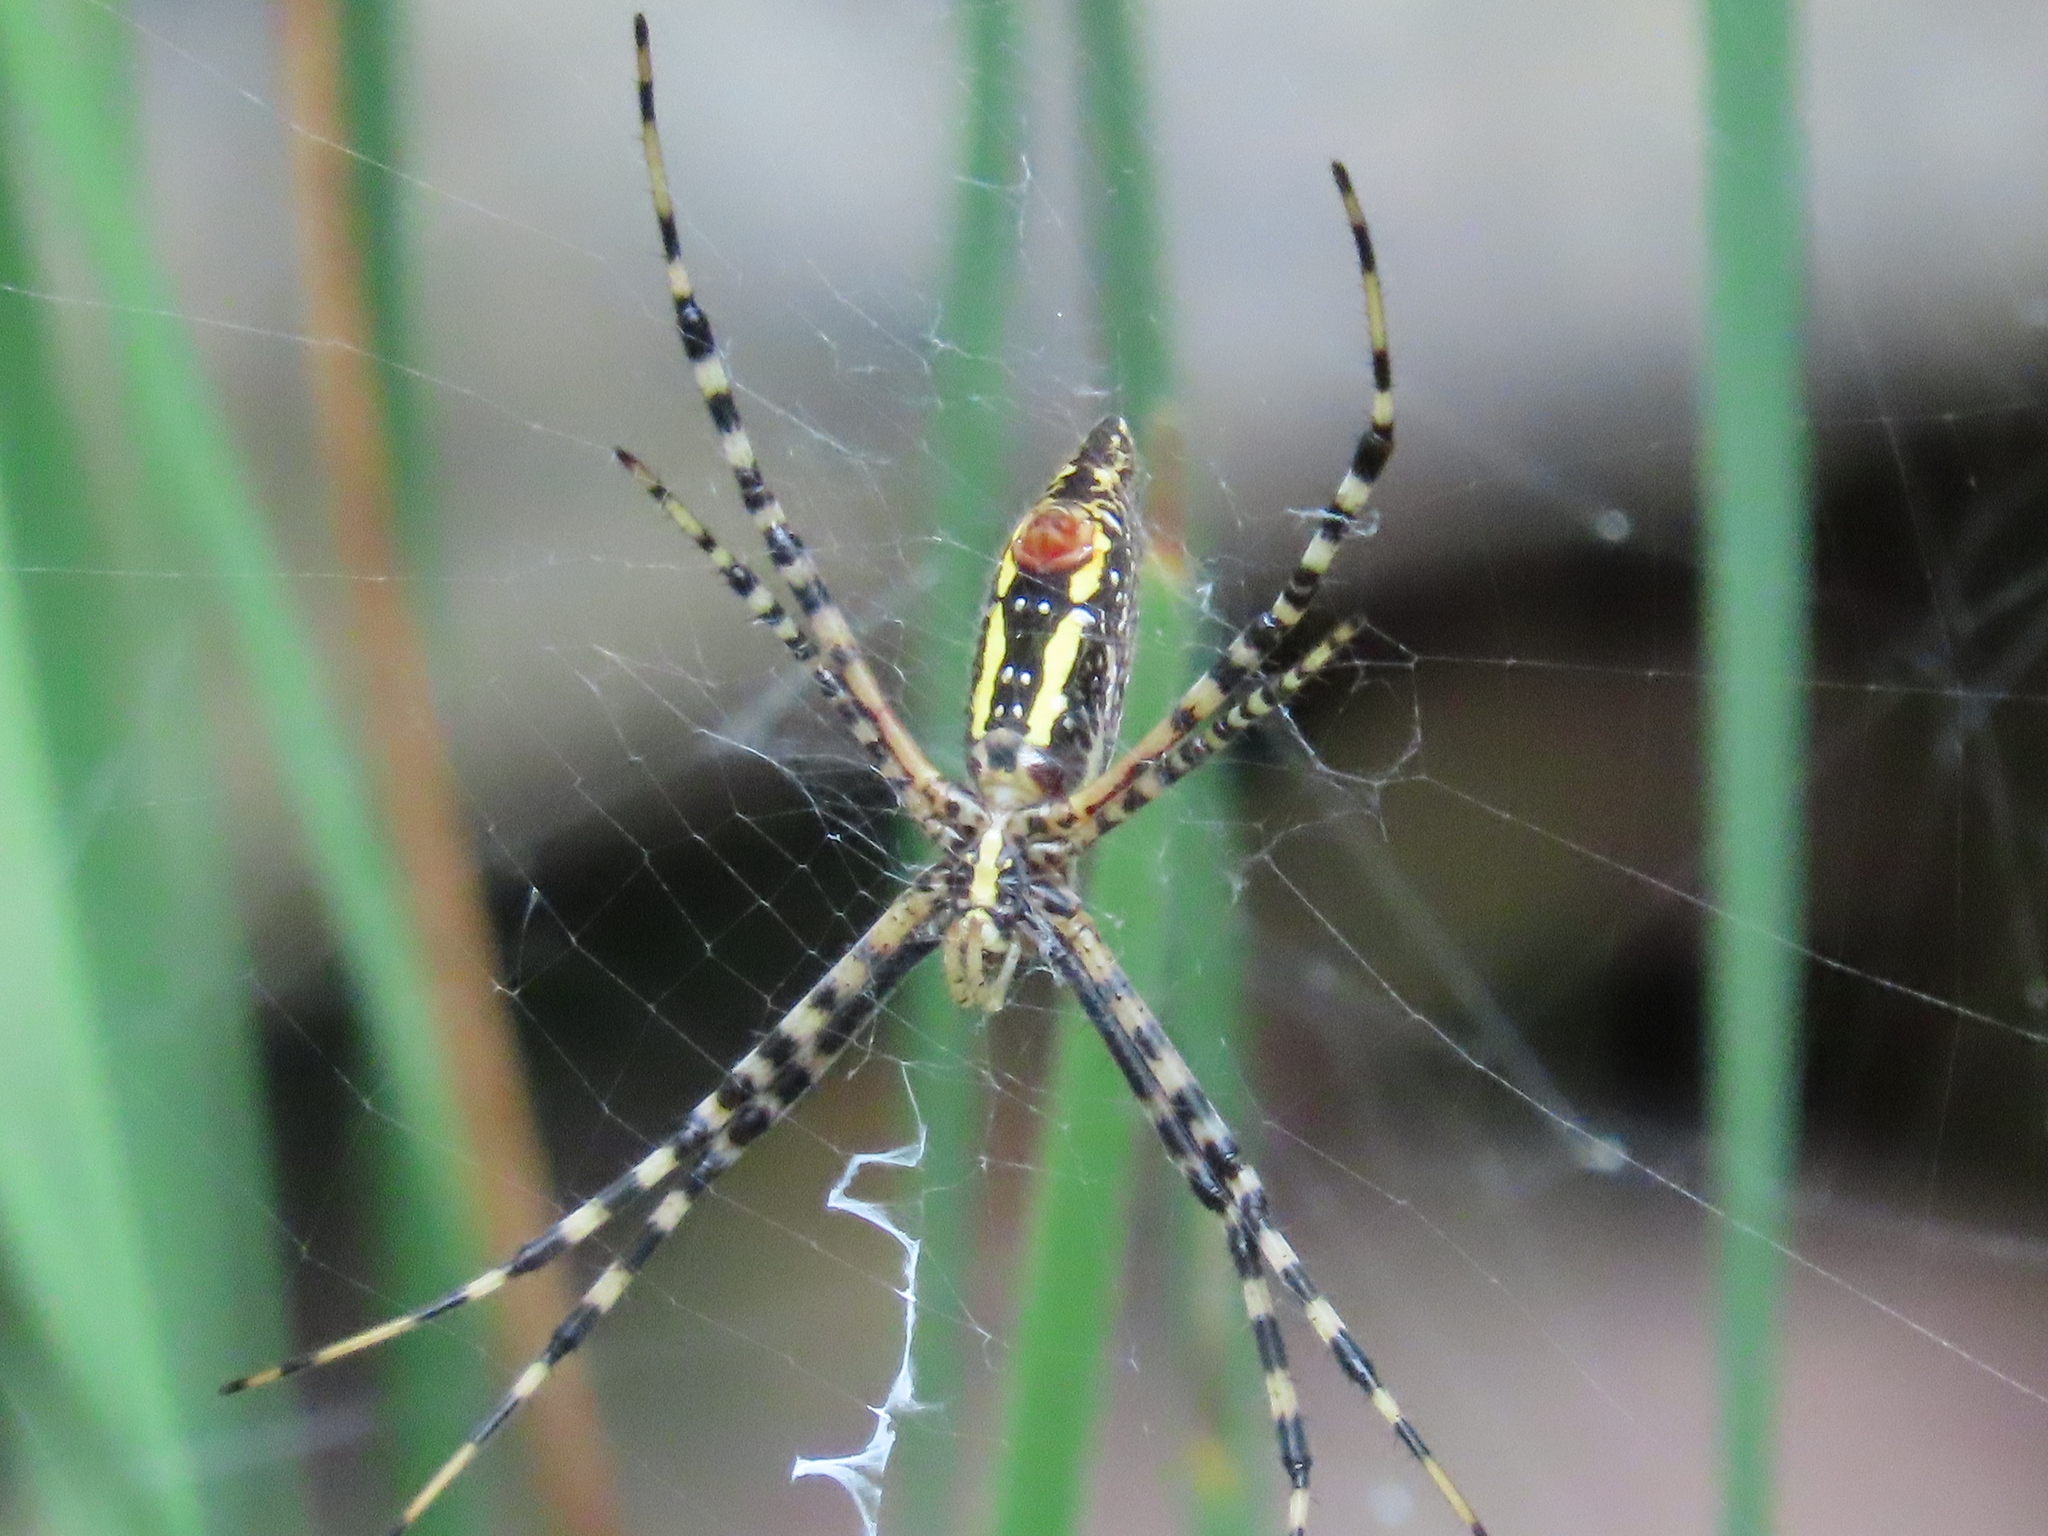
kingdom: Animalia
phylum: Arthropoda
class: Arachnida
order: Araneae
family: Araneidae
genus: Argiope
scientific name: Argiope aurantia
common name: Orb weavers
